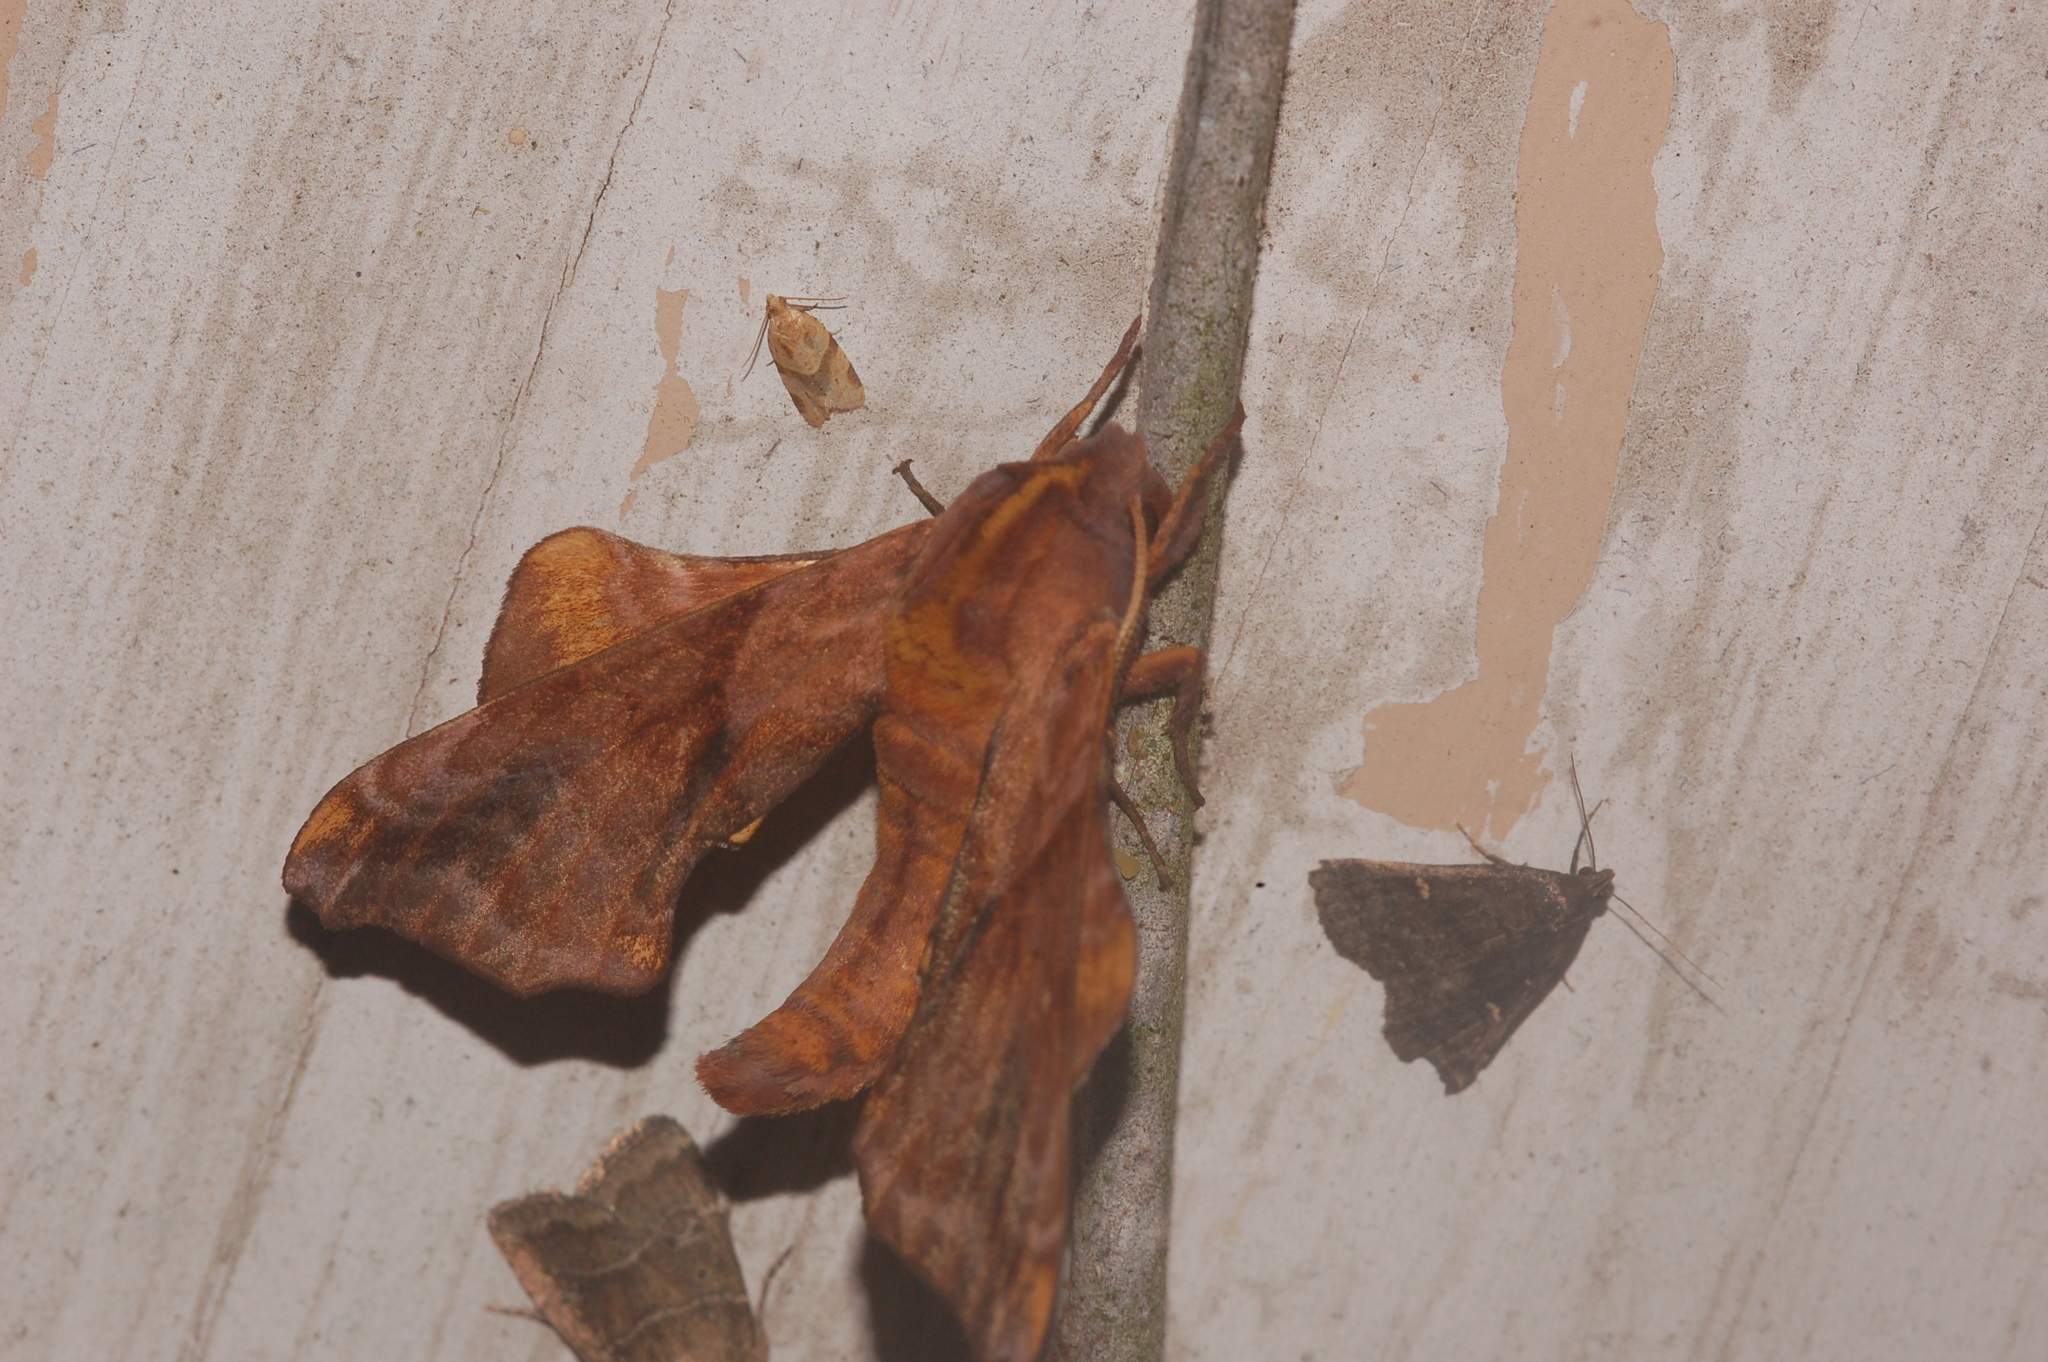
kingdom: Animalia
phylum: Arthropoda
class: Insecta
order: Lepidoptera
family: Sphingidae
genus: Paonias
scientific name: Paonias myops
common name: Small-eyed sphinx
